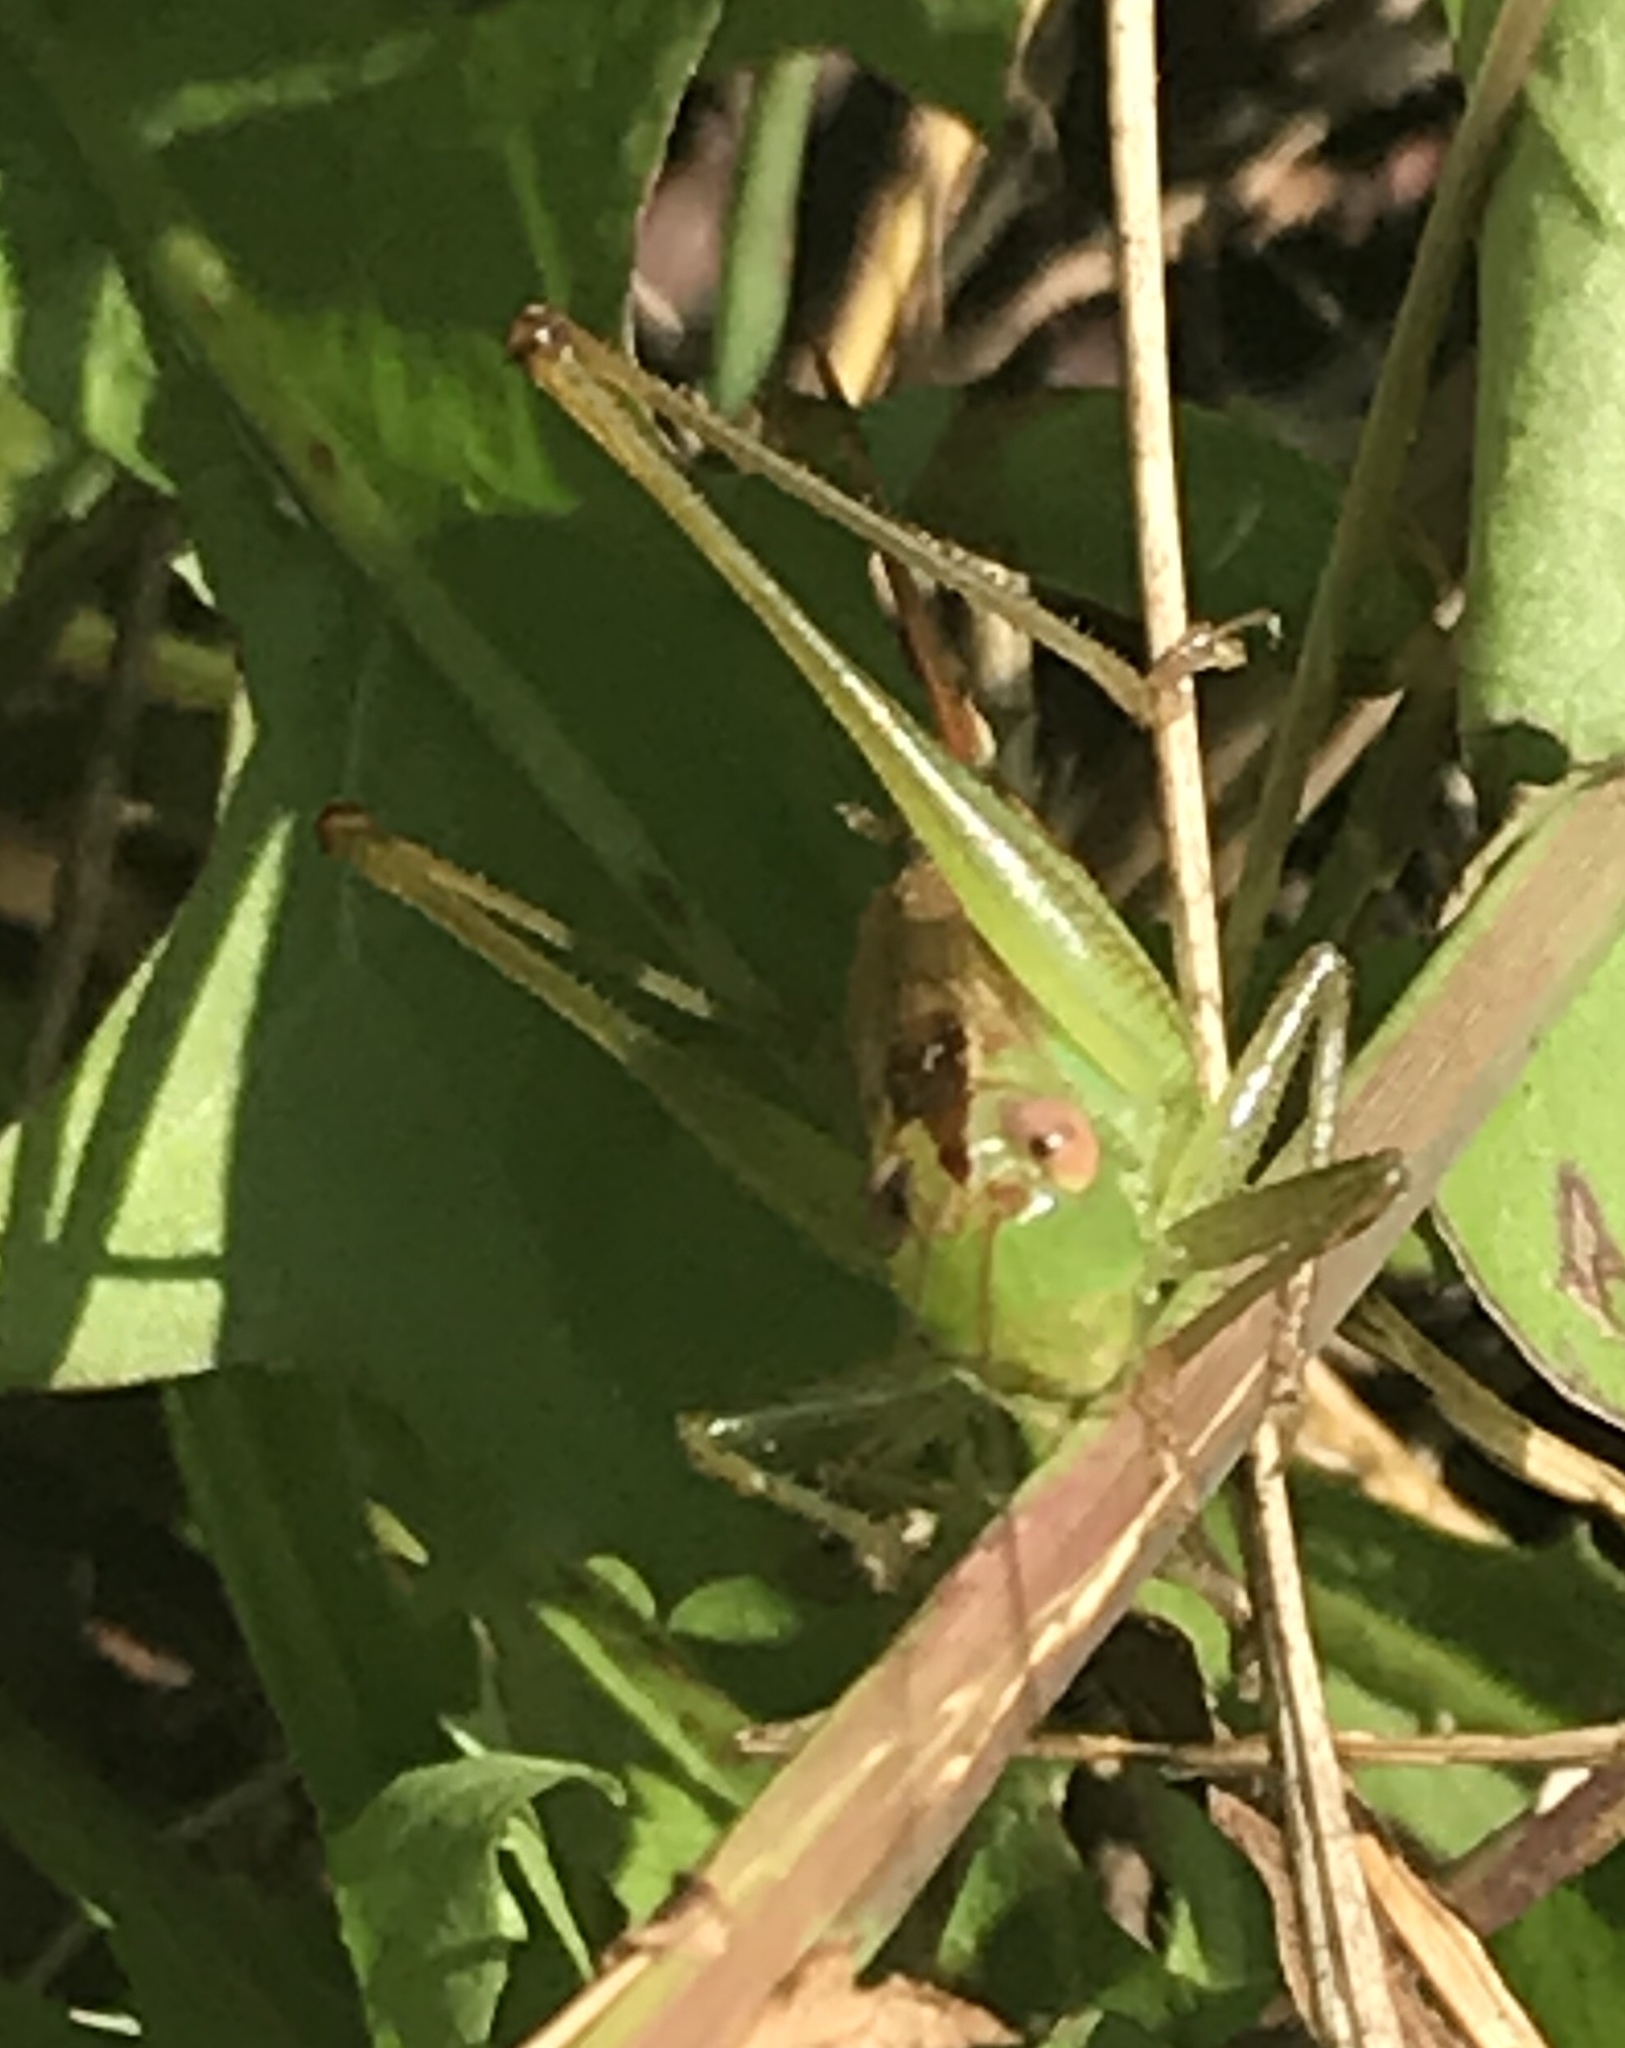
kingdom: Animalia
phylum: Arthropoda
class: Insecta
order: Orthoptera
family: Tettigoniidae
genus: Conocephalus
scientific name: Conocephalus brevipennis
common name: Short-winged meadow katydid
